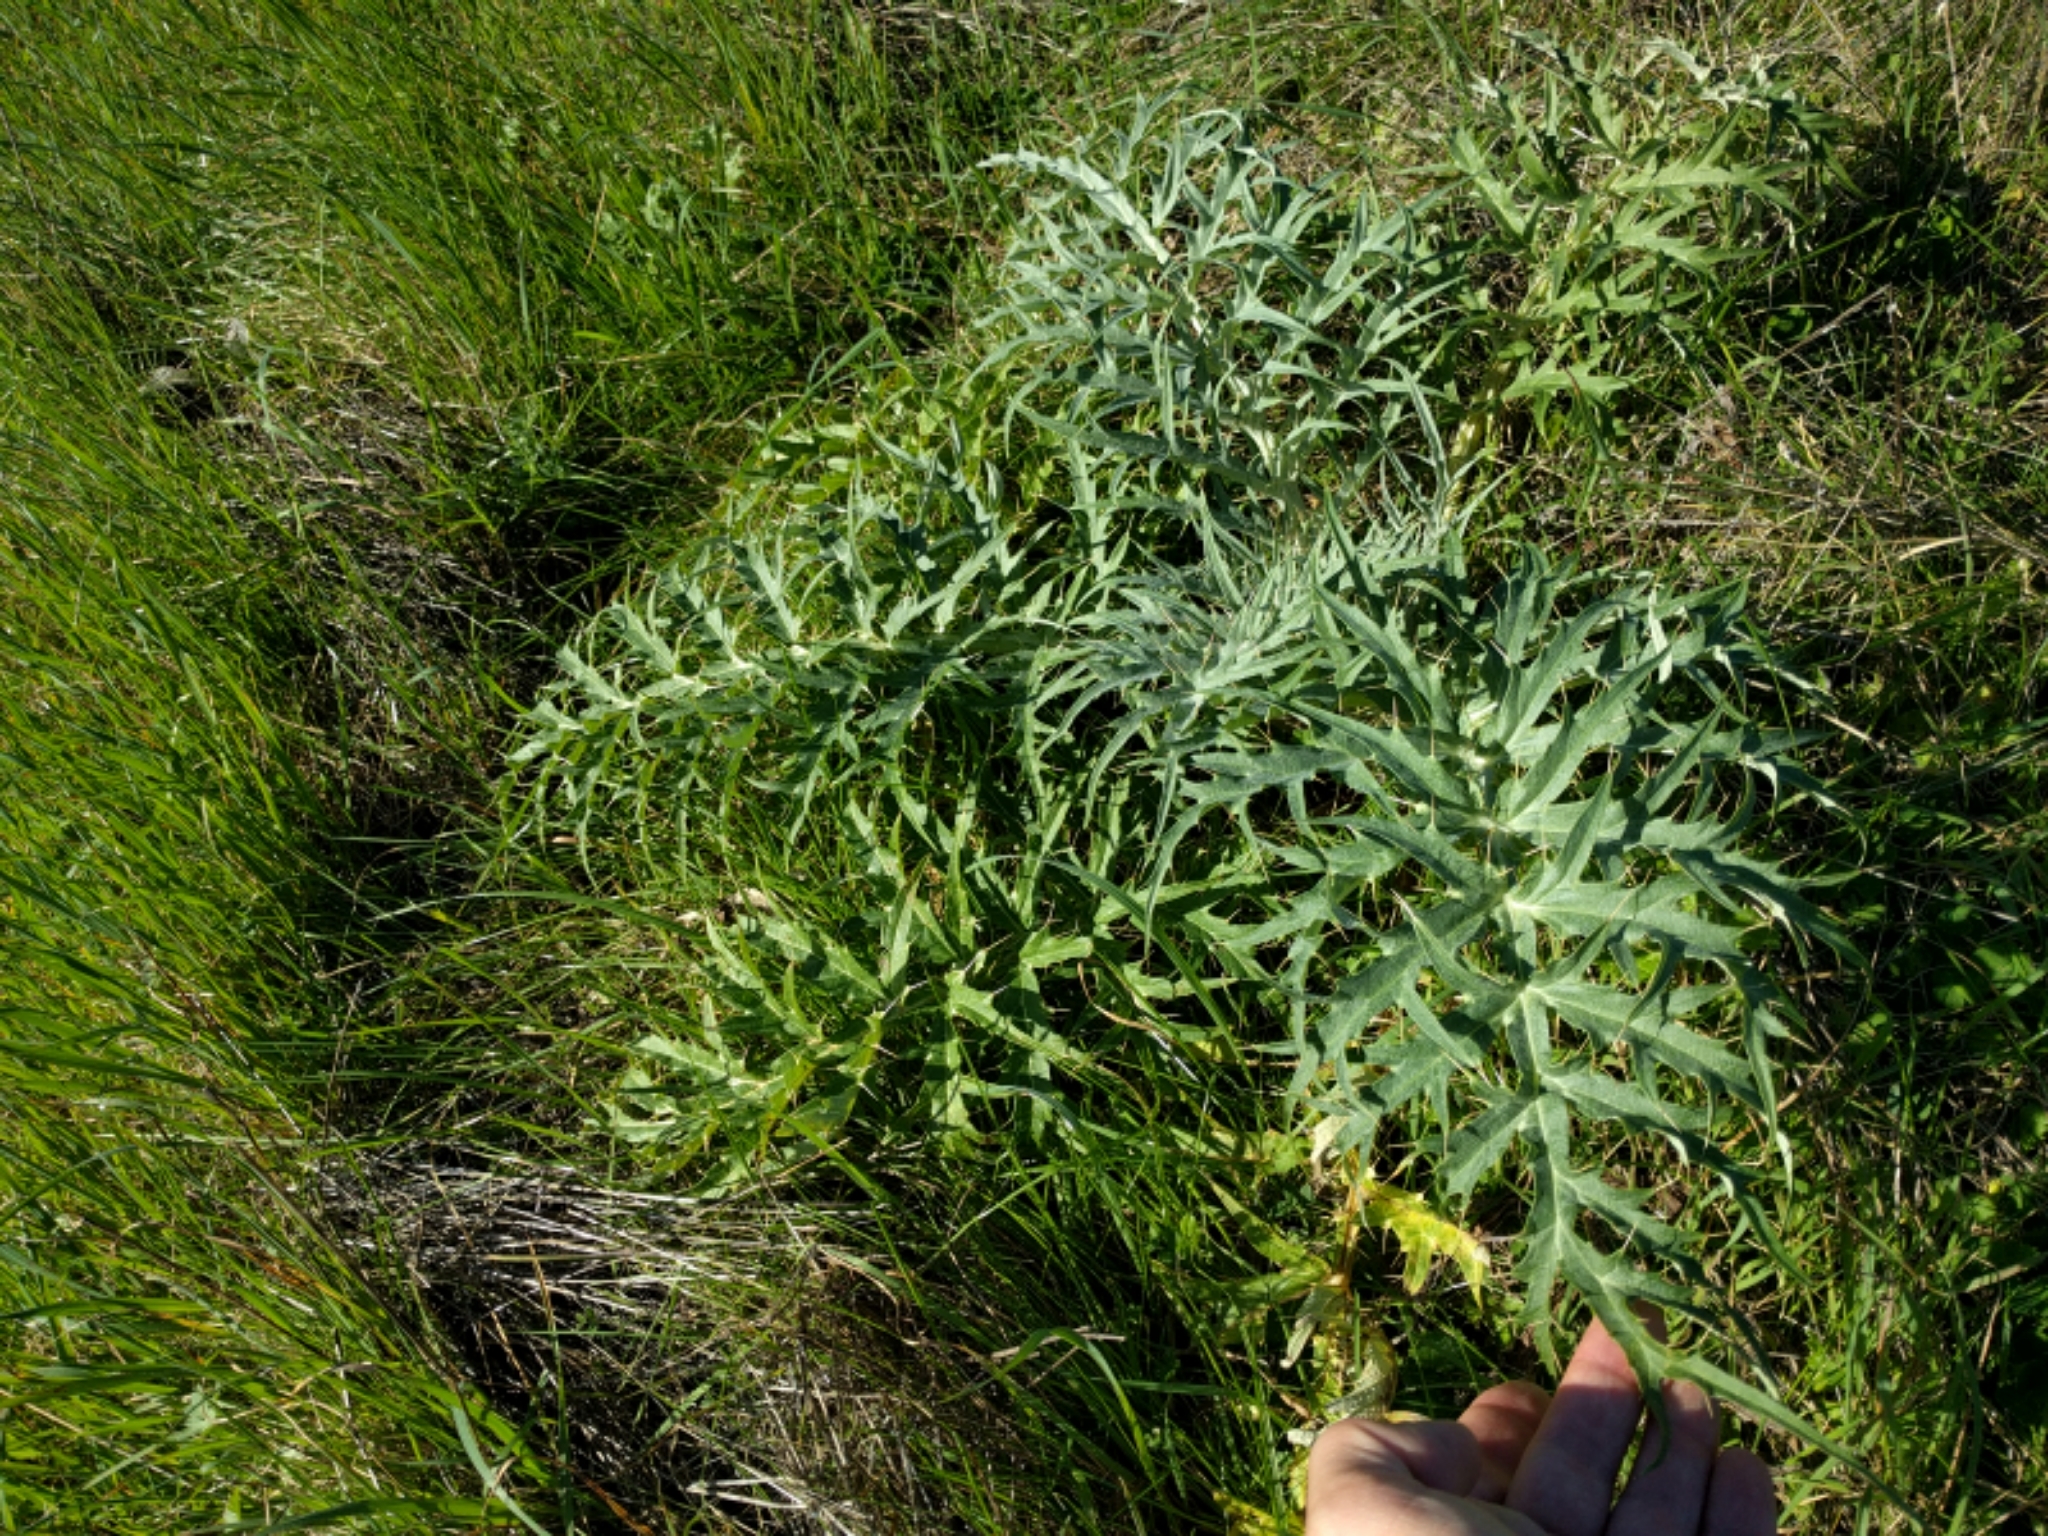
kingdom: Plantae
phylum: Tracheophyta
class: Magnoliopsida
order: Asterales
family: Asteraceae
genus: Cynara
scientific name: Cynara cardunculus
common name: Globe artichoke
